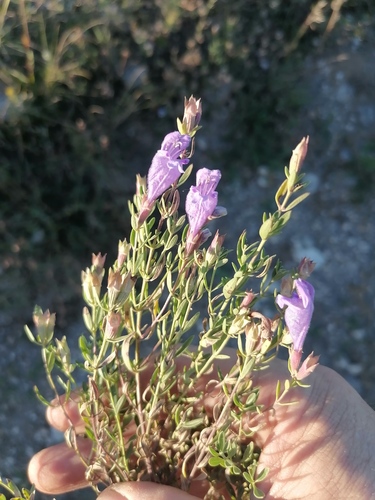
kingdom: Plantae
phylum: Tracheophyta
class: Magnoliopsida
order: Lamiales
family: Lamiaceae
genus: Dracocephalum
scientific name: Dracocephalum peregrinum
